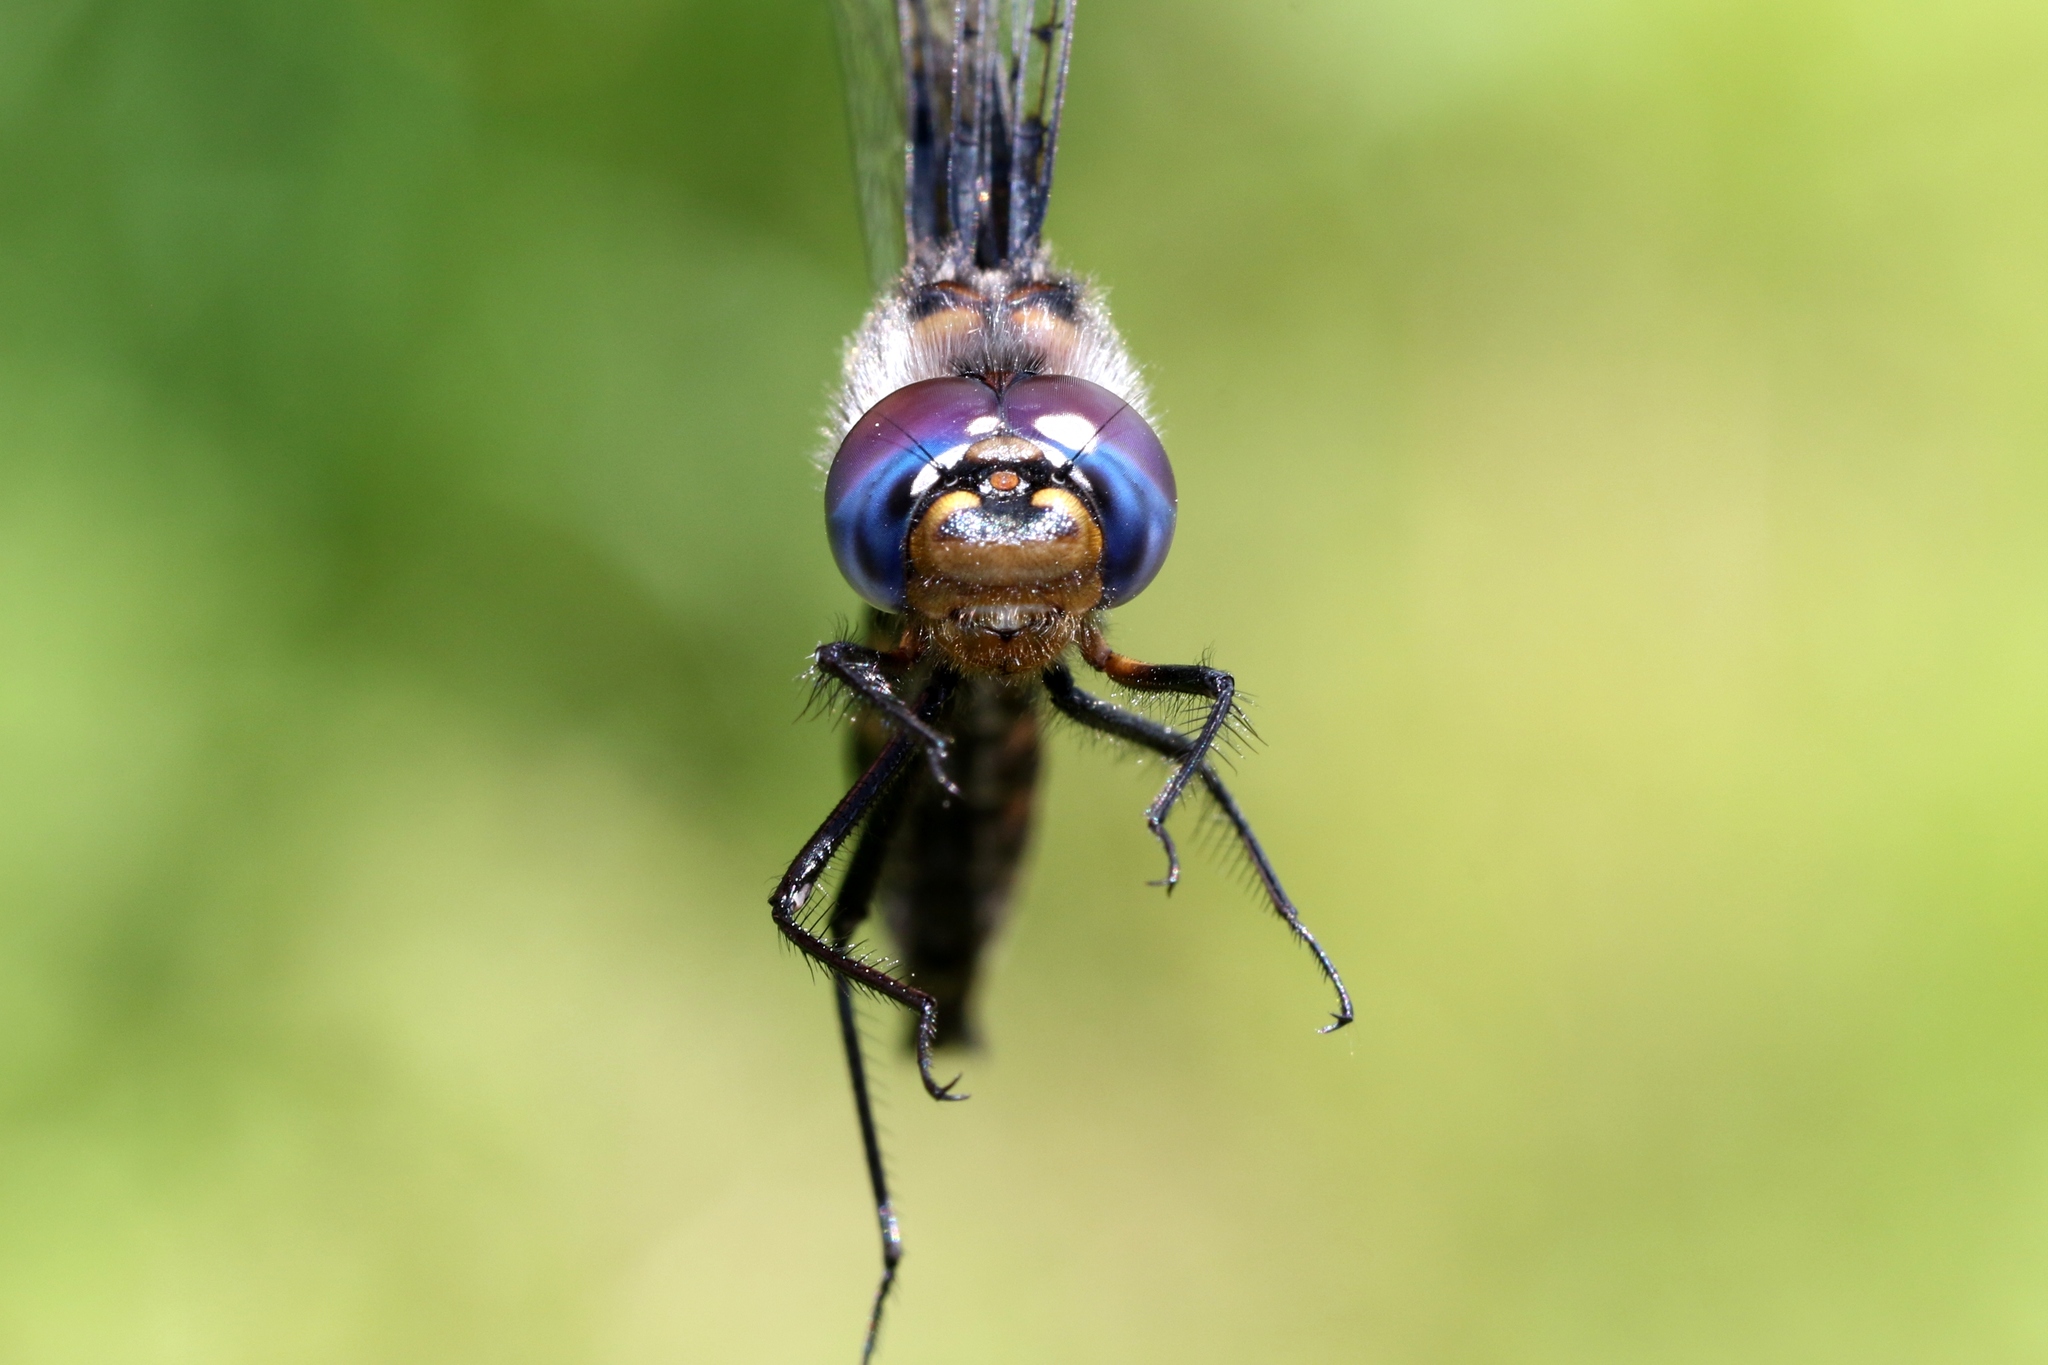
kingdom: Animalia
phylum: Arthropoda
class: Insecta
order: Odonata
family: Corduliidae
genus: Epitheca
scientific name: Epitheca spinigera
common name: Spiny baskettail
